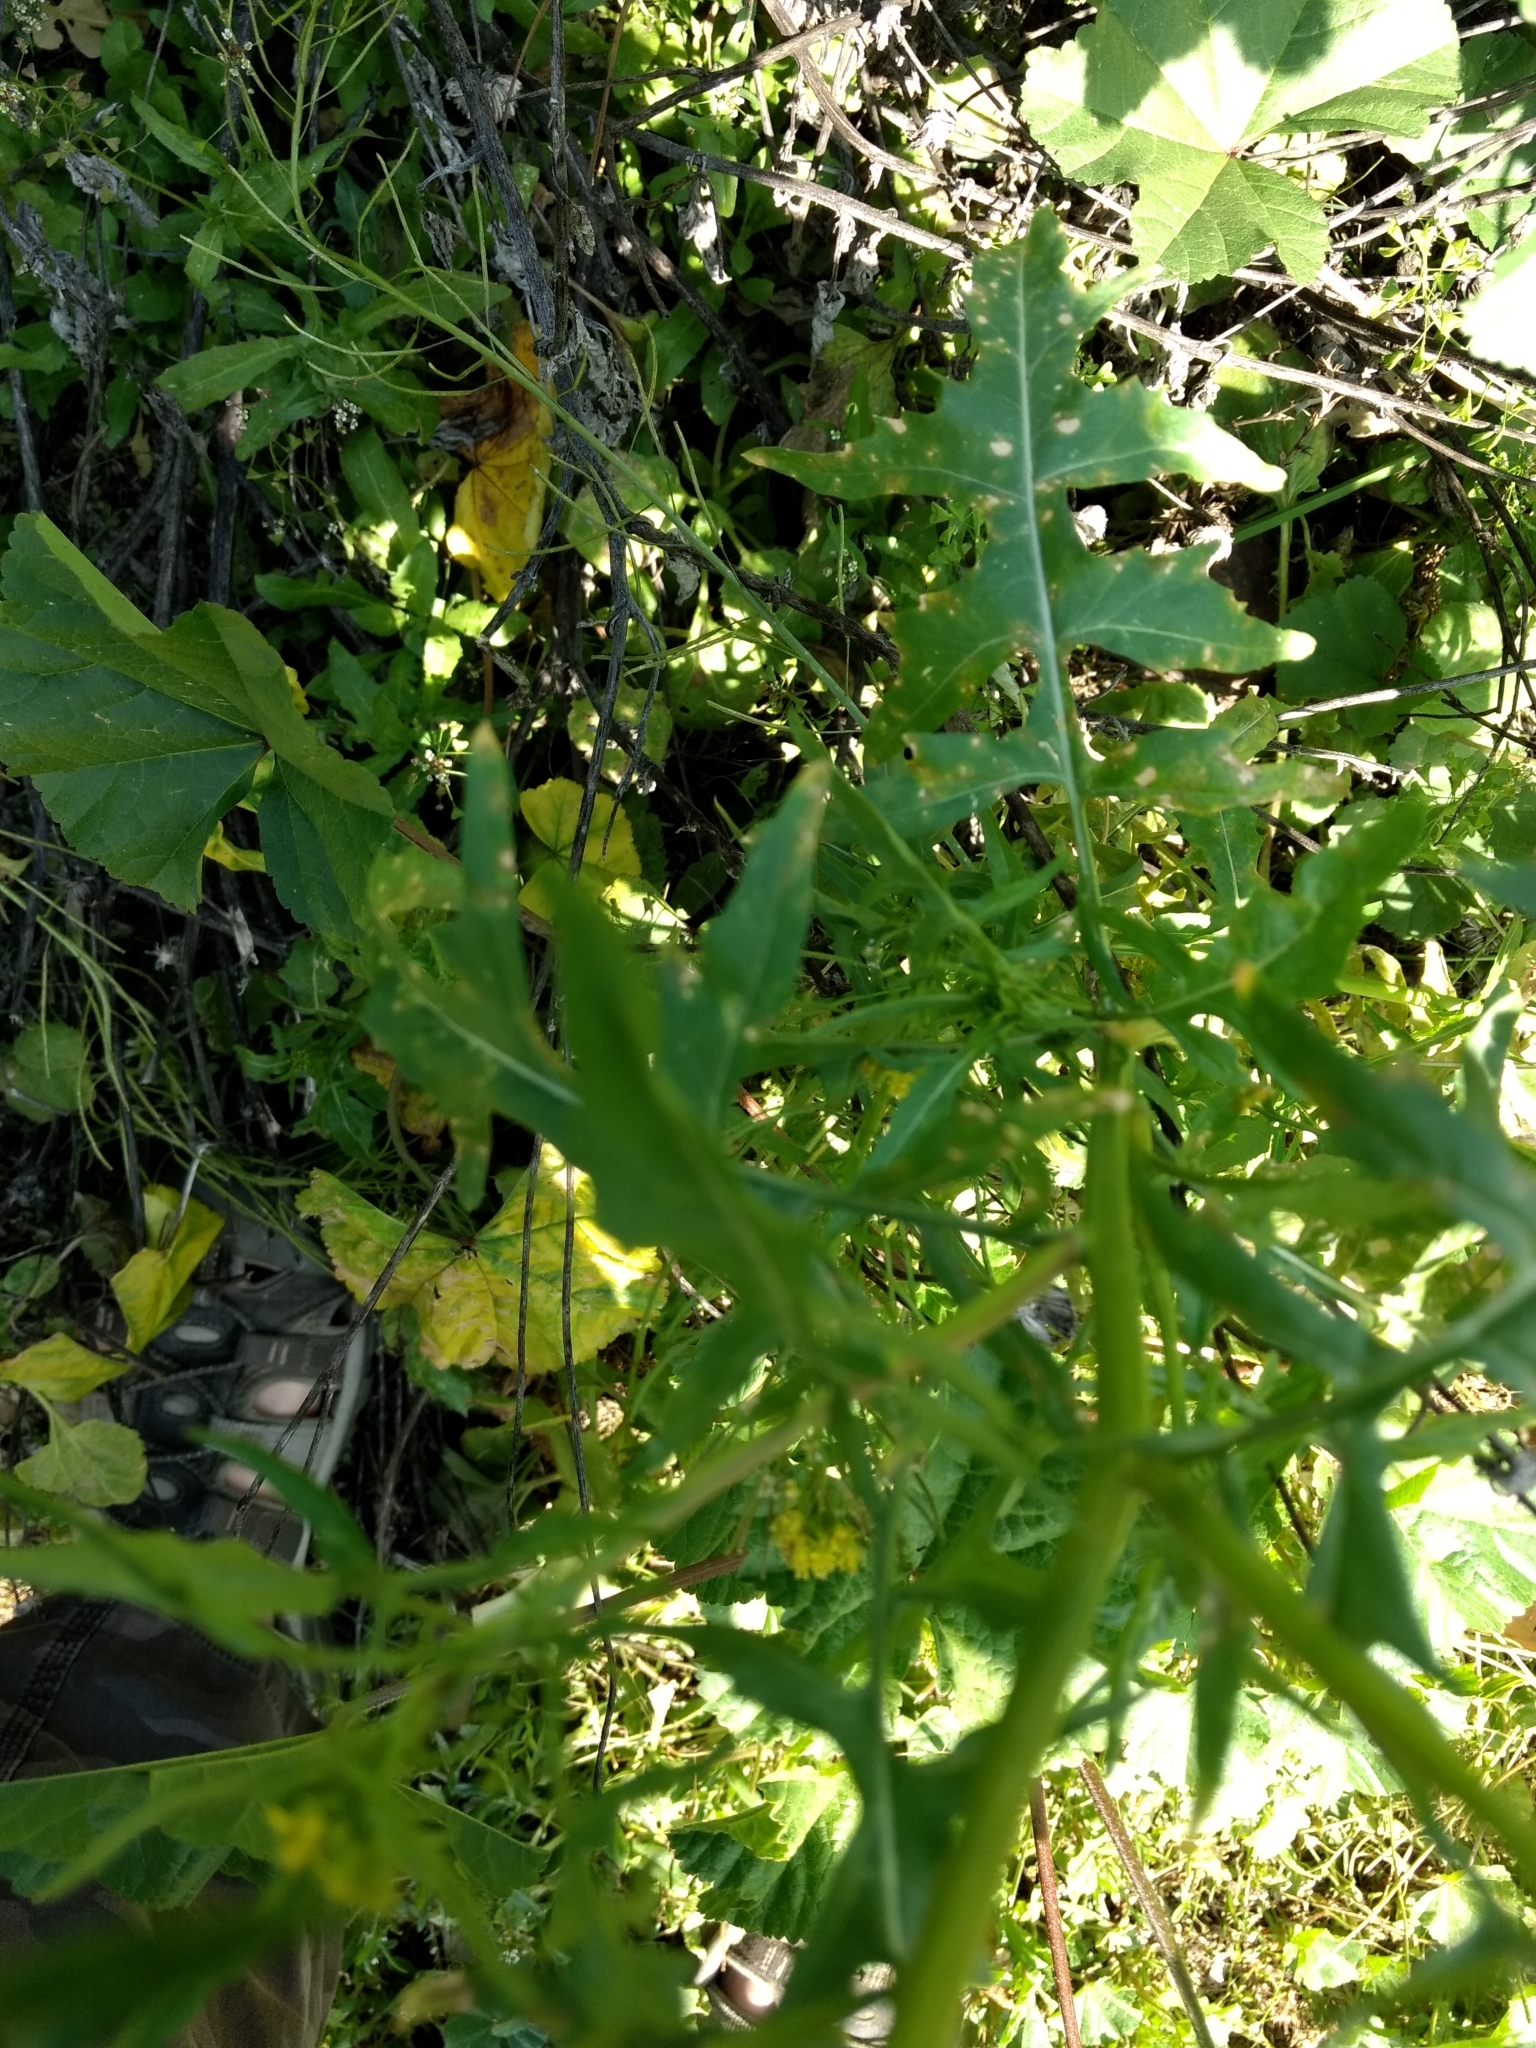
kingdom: Plantae
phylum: Tracheophyta
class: Magnoliopsida
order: Brassicales
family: Brassicaceae
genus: Sisymbrium
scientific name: Sisymbrium irio
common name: London rocket
